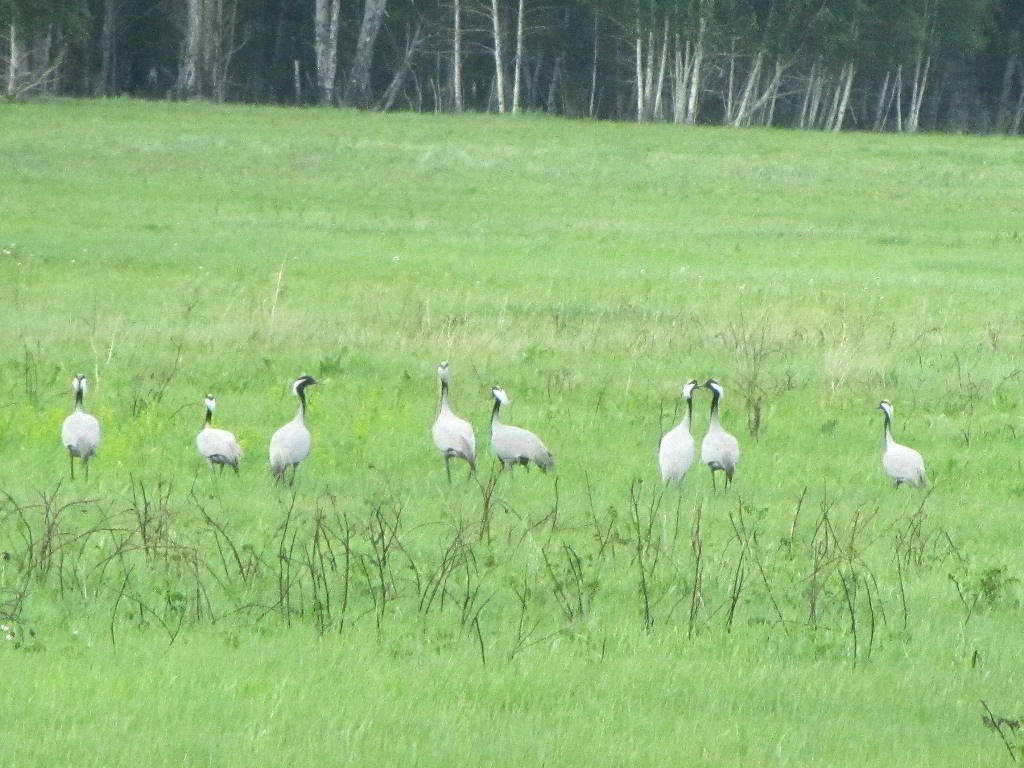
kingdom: Animalia
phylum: Chordata
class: Aves
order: Gruiformes
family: Gruidae
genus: Anthropoides
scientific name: Anthropoides virgo
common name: Demoiselle crane
